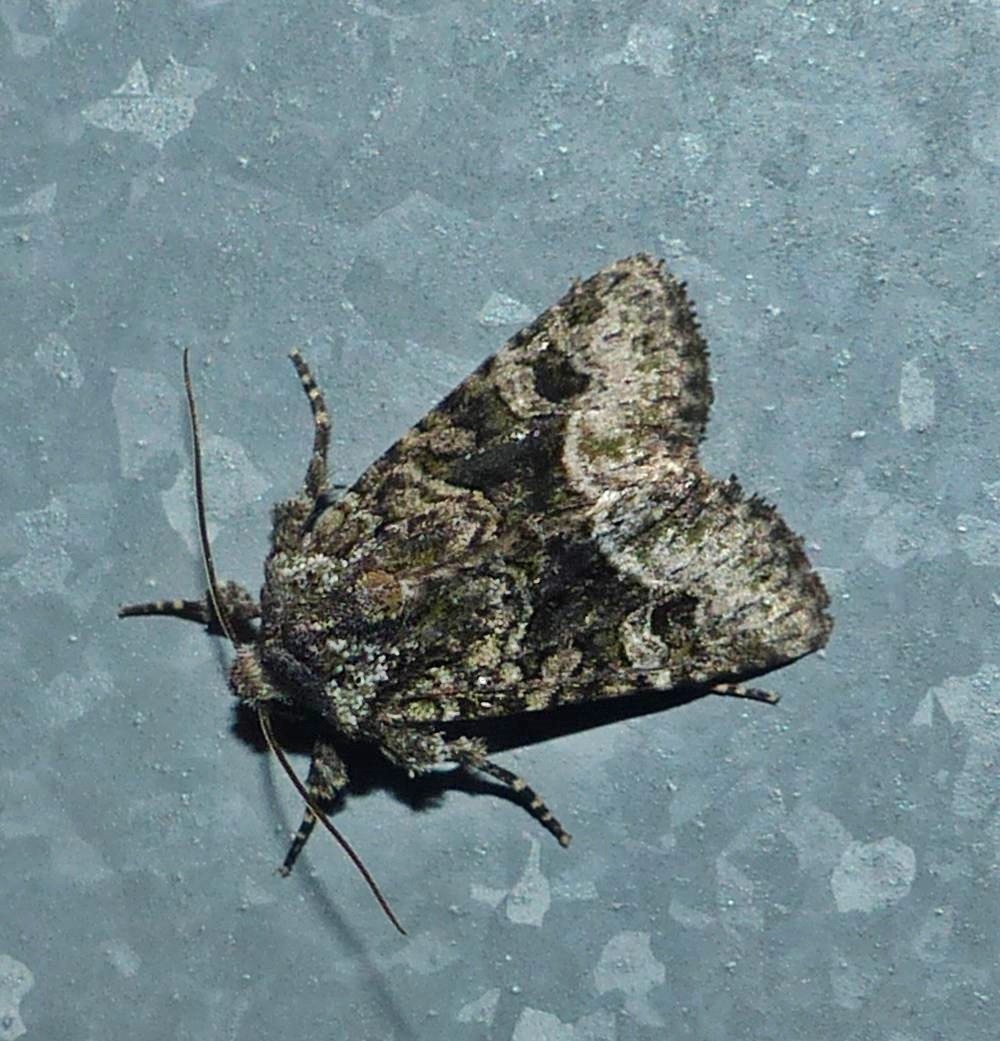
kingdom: Animalia
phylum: Arthropoda
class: Insecta
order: Lepidoptera
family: Noctuidae
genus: Lacinipolia
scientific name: Lacinipolia olivacea
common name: Olive arches moth
